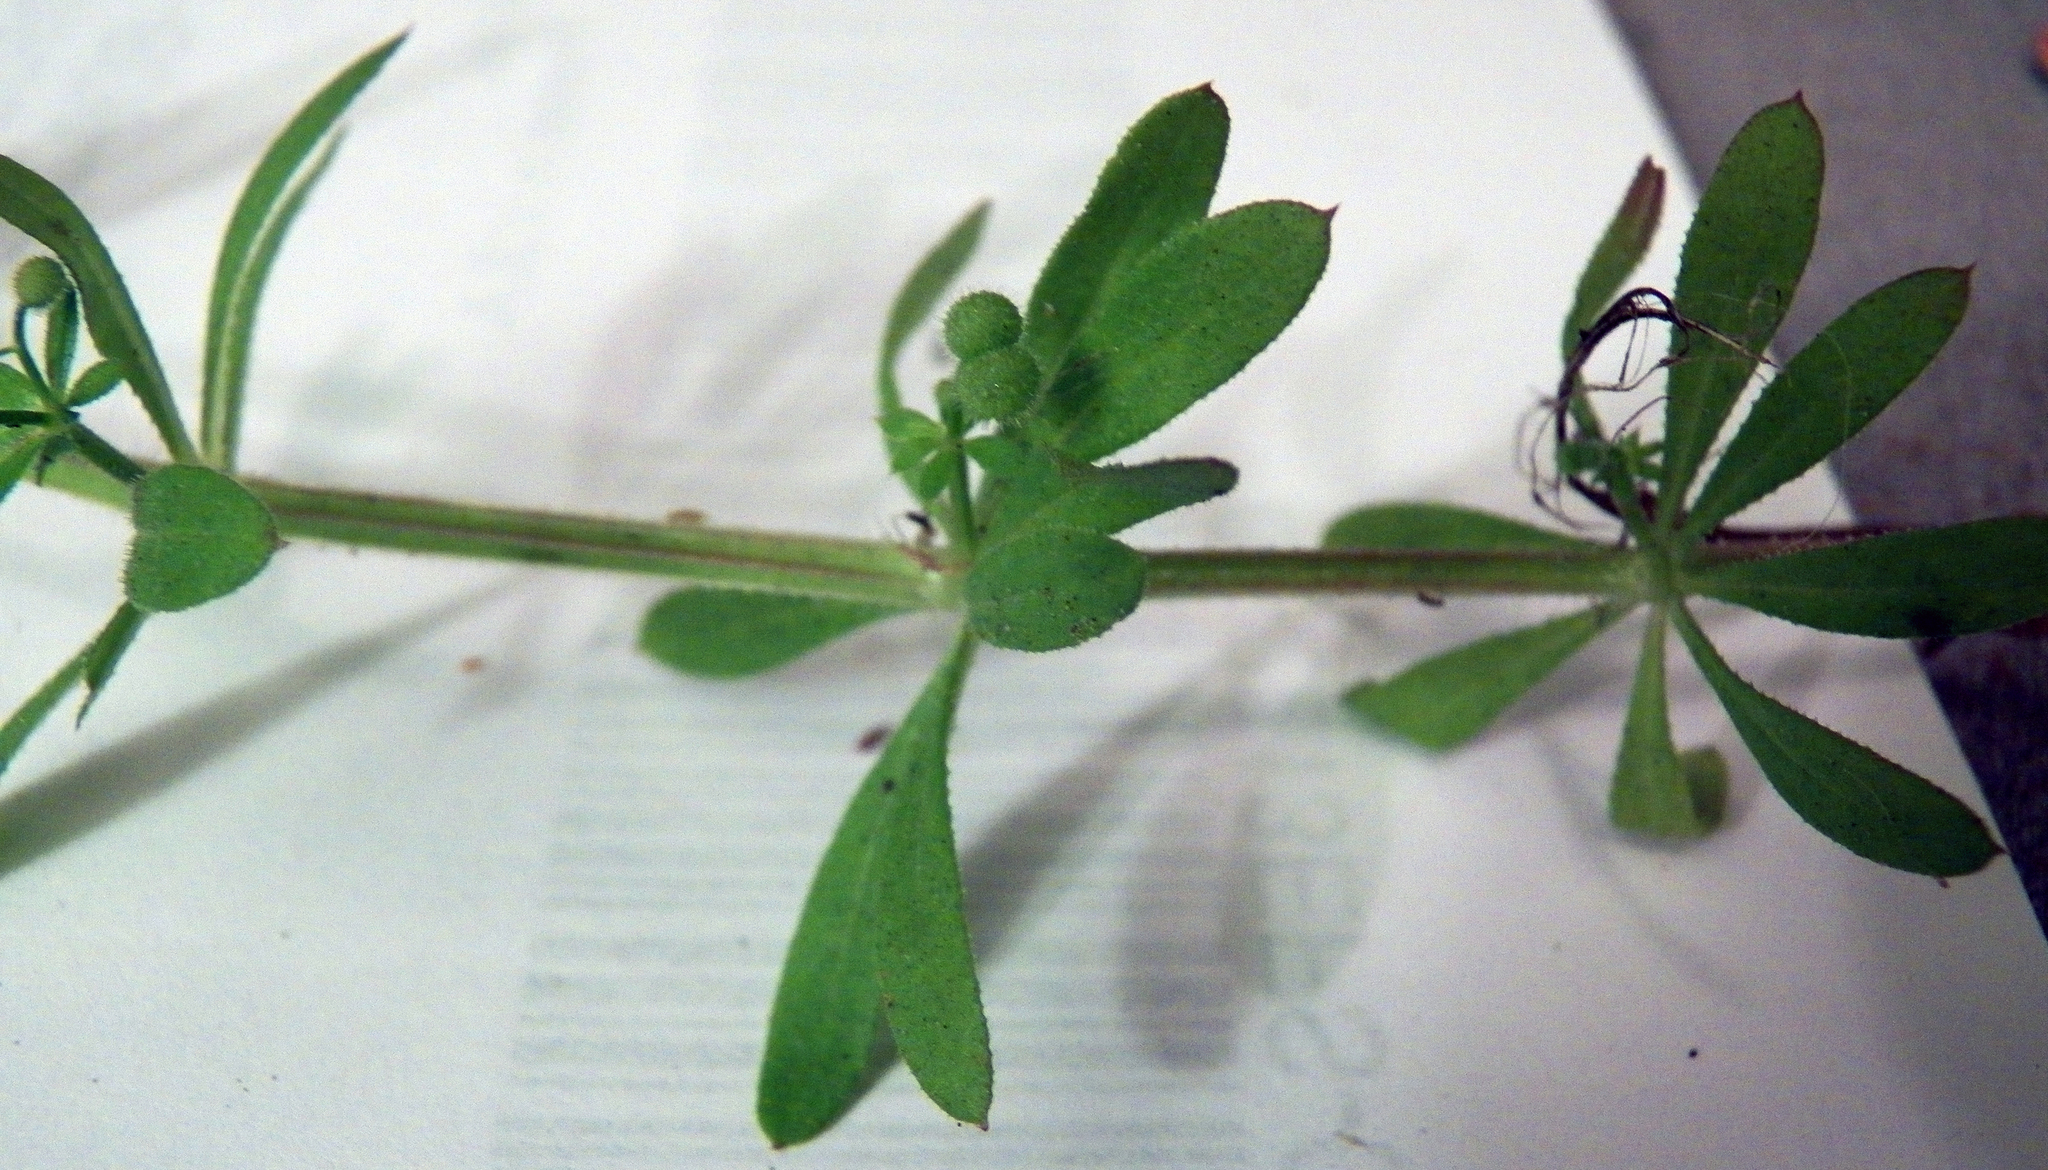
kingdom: Plantae
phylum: Tracheophyta
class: Magnoliopsida
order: Gentianales
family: Rubiaceae
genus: Galium
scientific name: Galium aparine
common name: Cleavers
